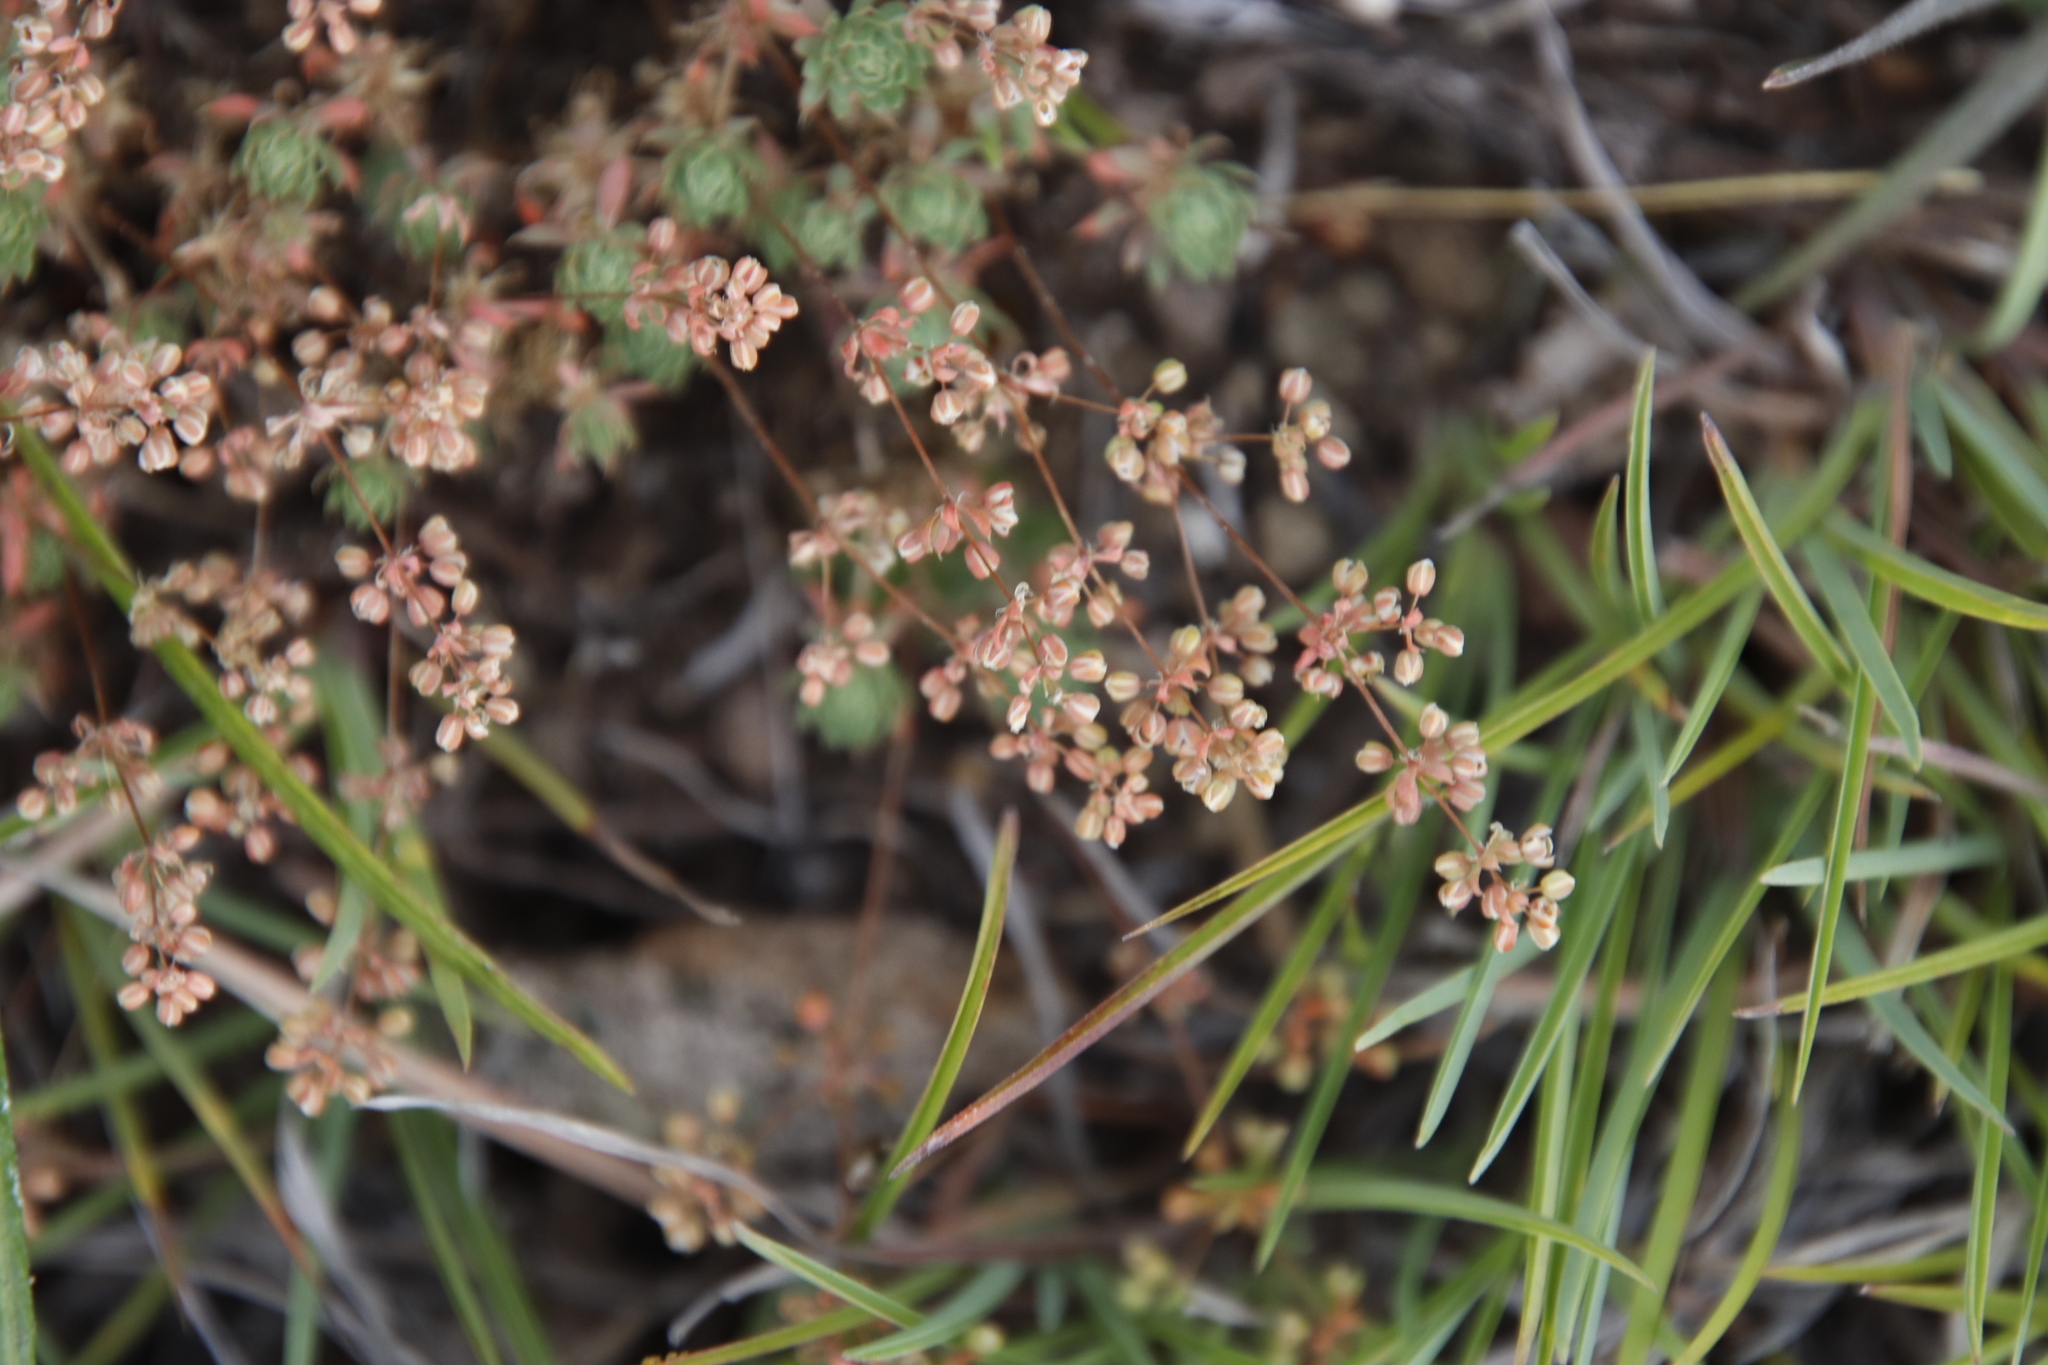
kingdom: Plantae
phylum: Tracheophyta
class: Magnoliopsida
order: Caryophyllales
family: Molluginaceae
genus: Psammotropha
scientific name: Psammotropha mucronata
